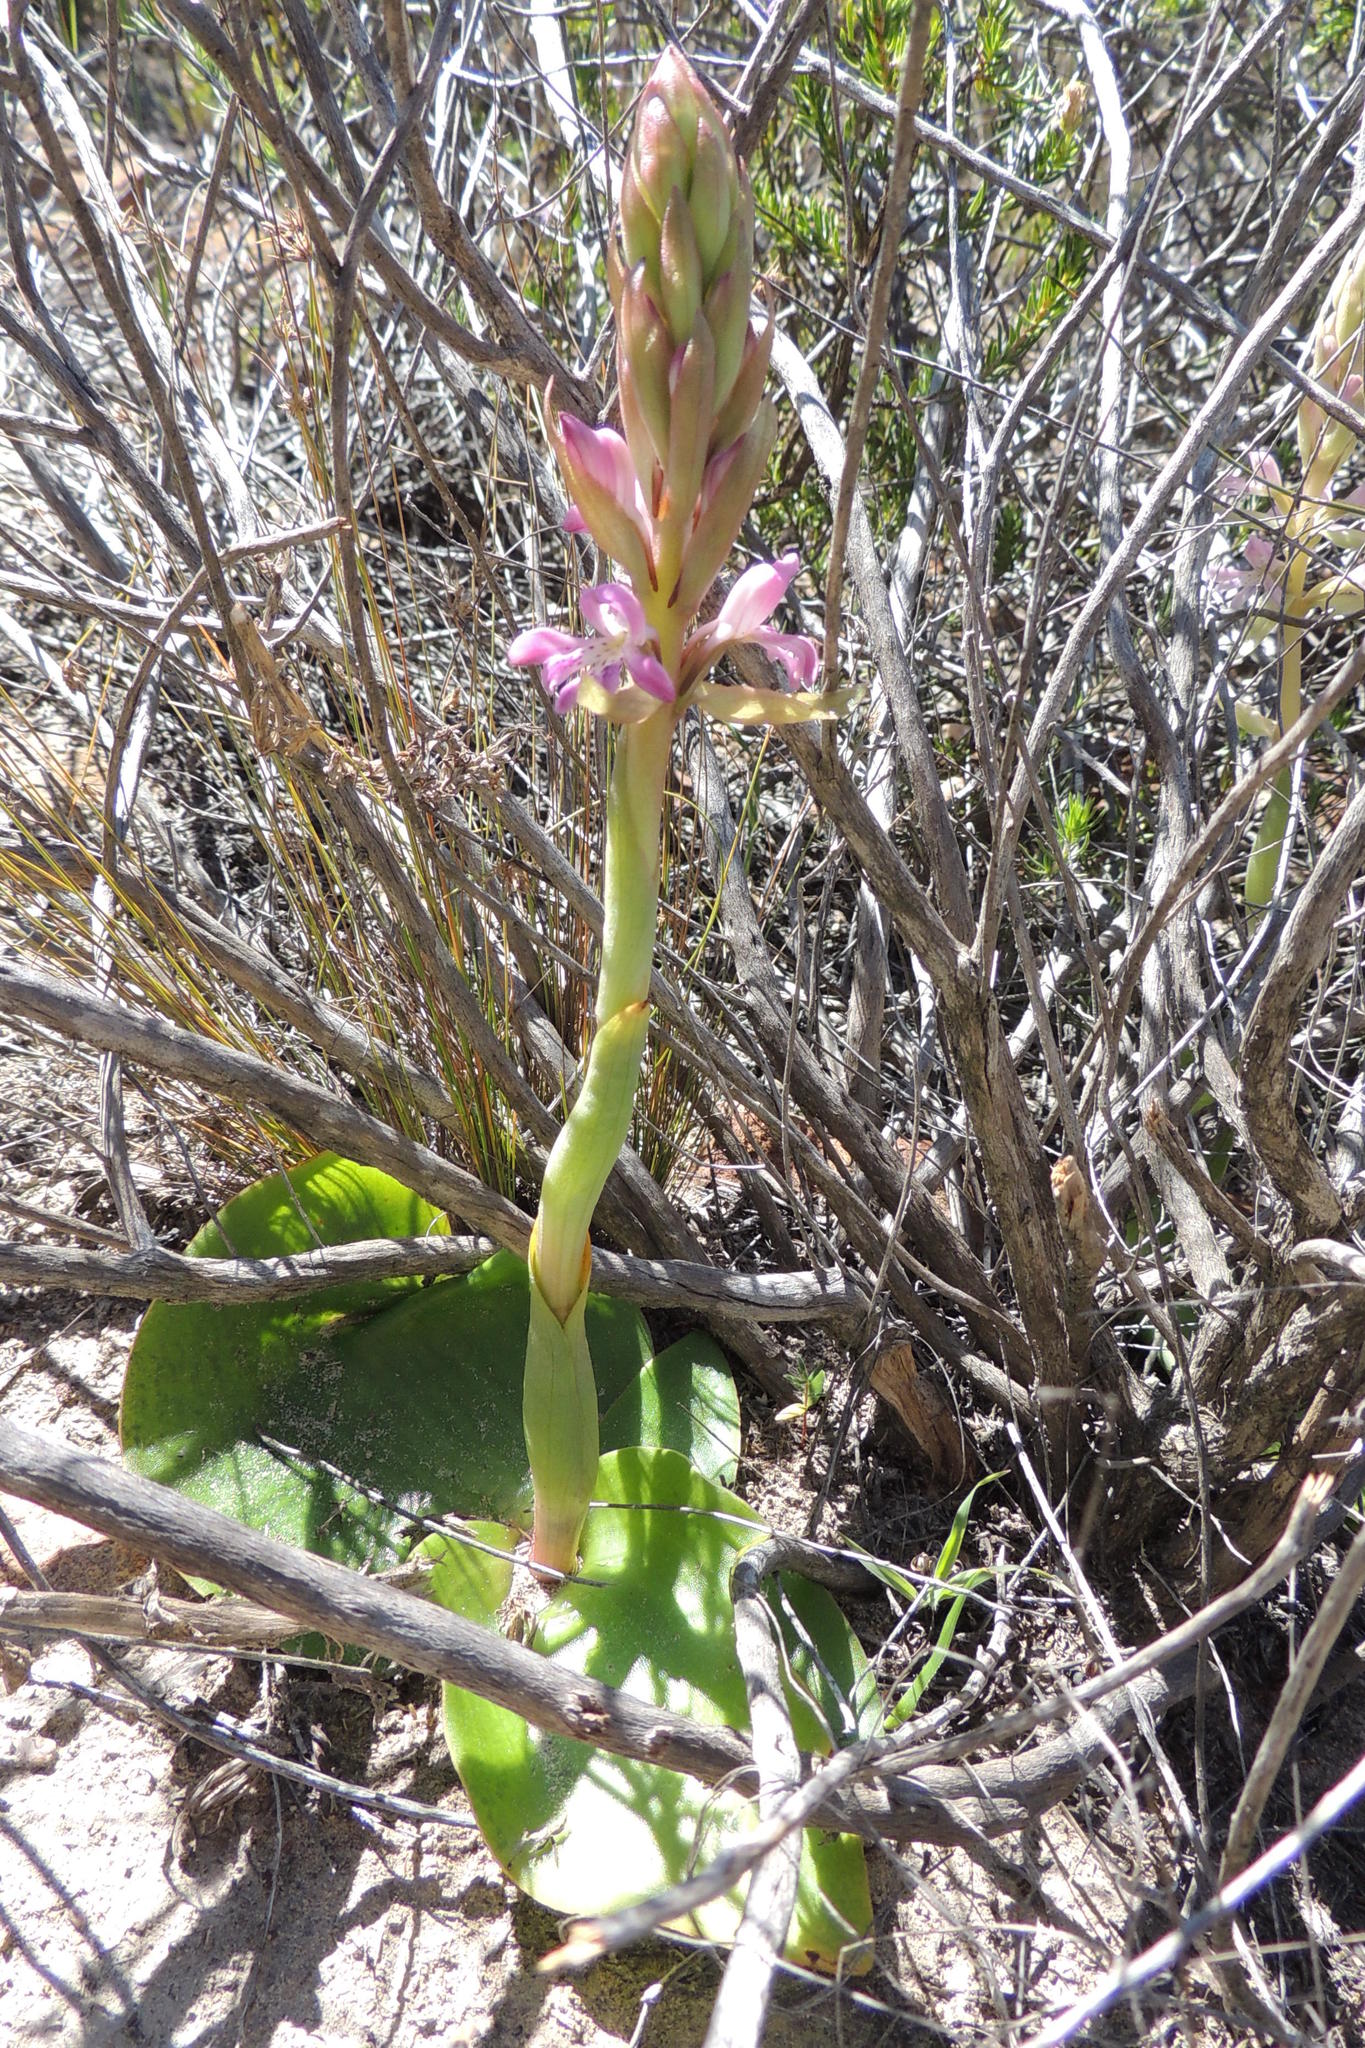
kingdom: Plantae
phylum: Tracheophyta
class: Liliopsida
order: Asparagales
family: Orchidaceae
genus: Satyrium
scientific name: Satyrium erectum
